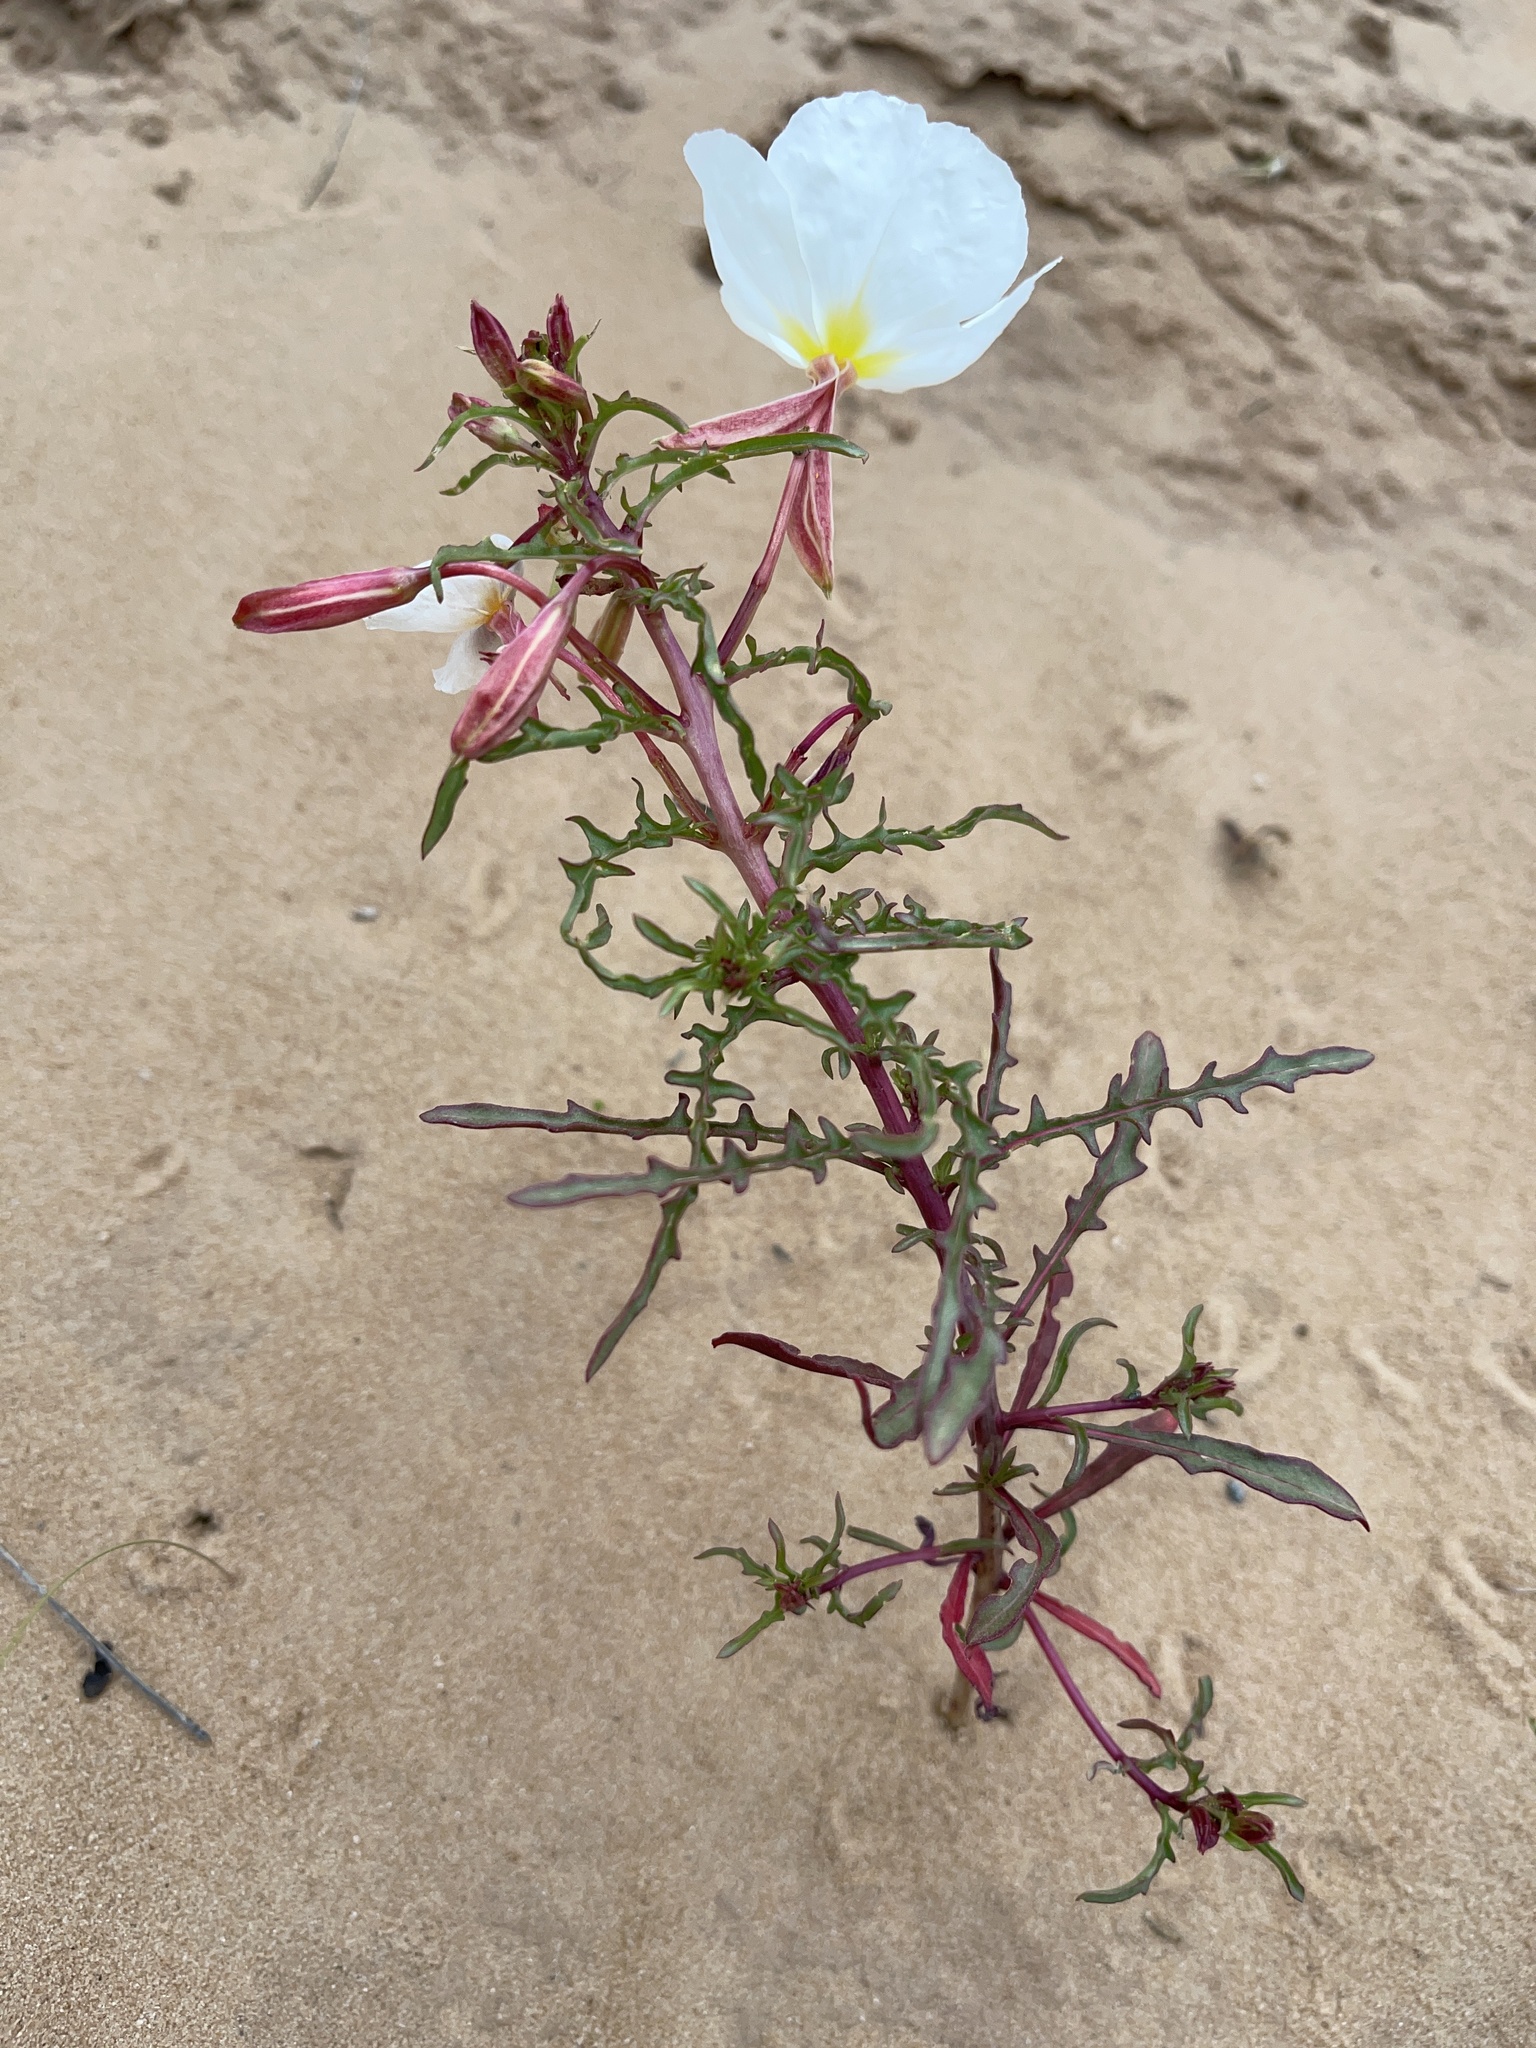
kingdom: Plantae
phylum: Tracheophyta
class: Magnoliopsida
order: Myrtales
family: Onagraceae
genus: Oenothera
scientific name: Oenothera pallida
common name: Pale evening-primrose
